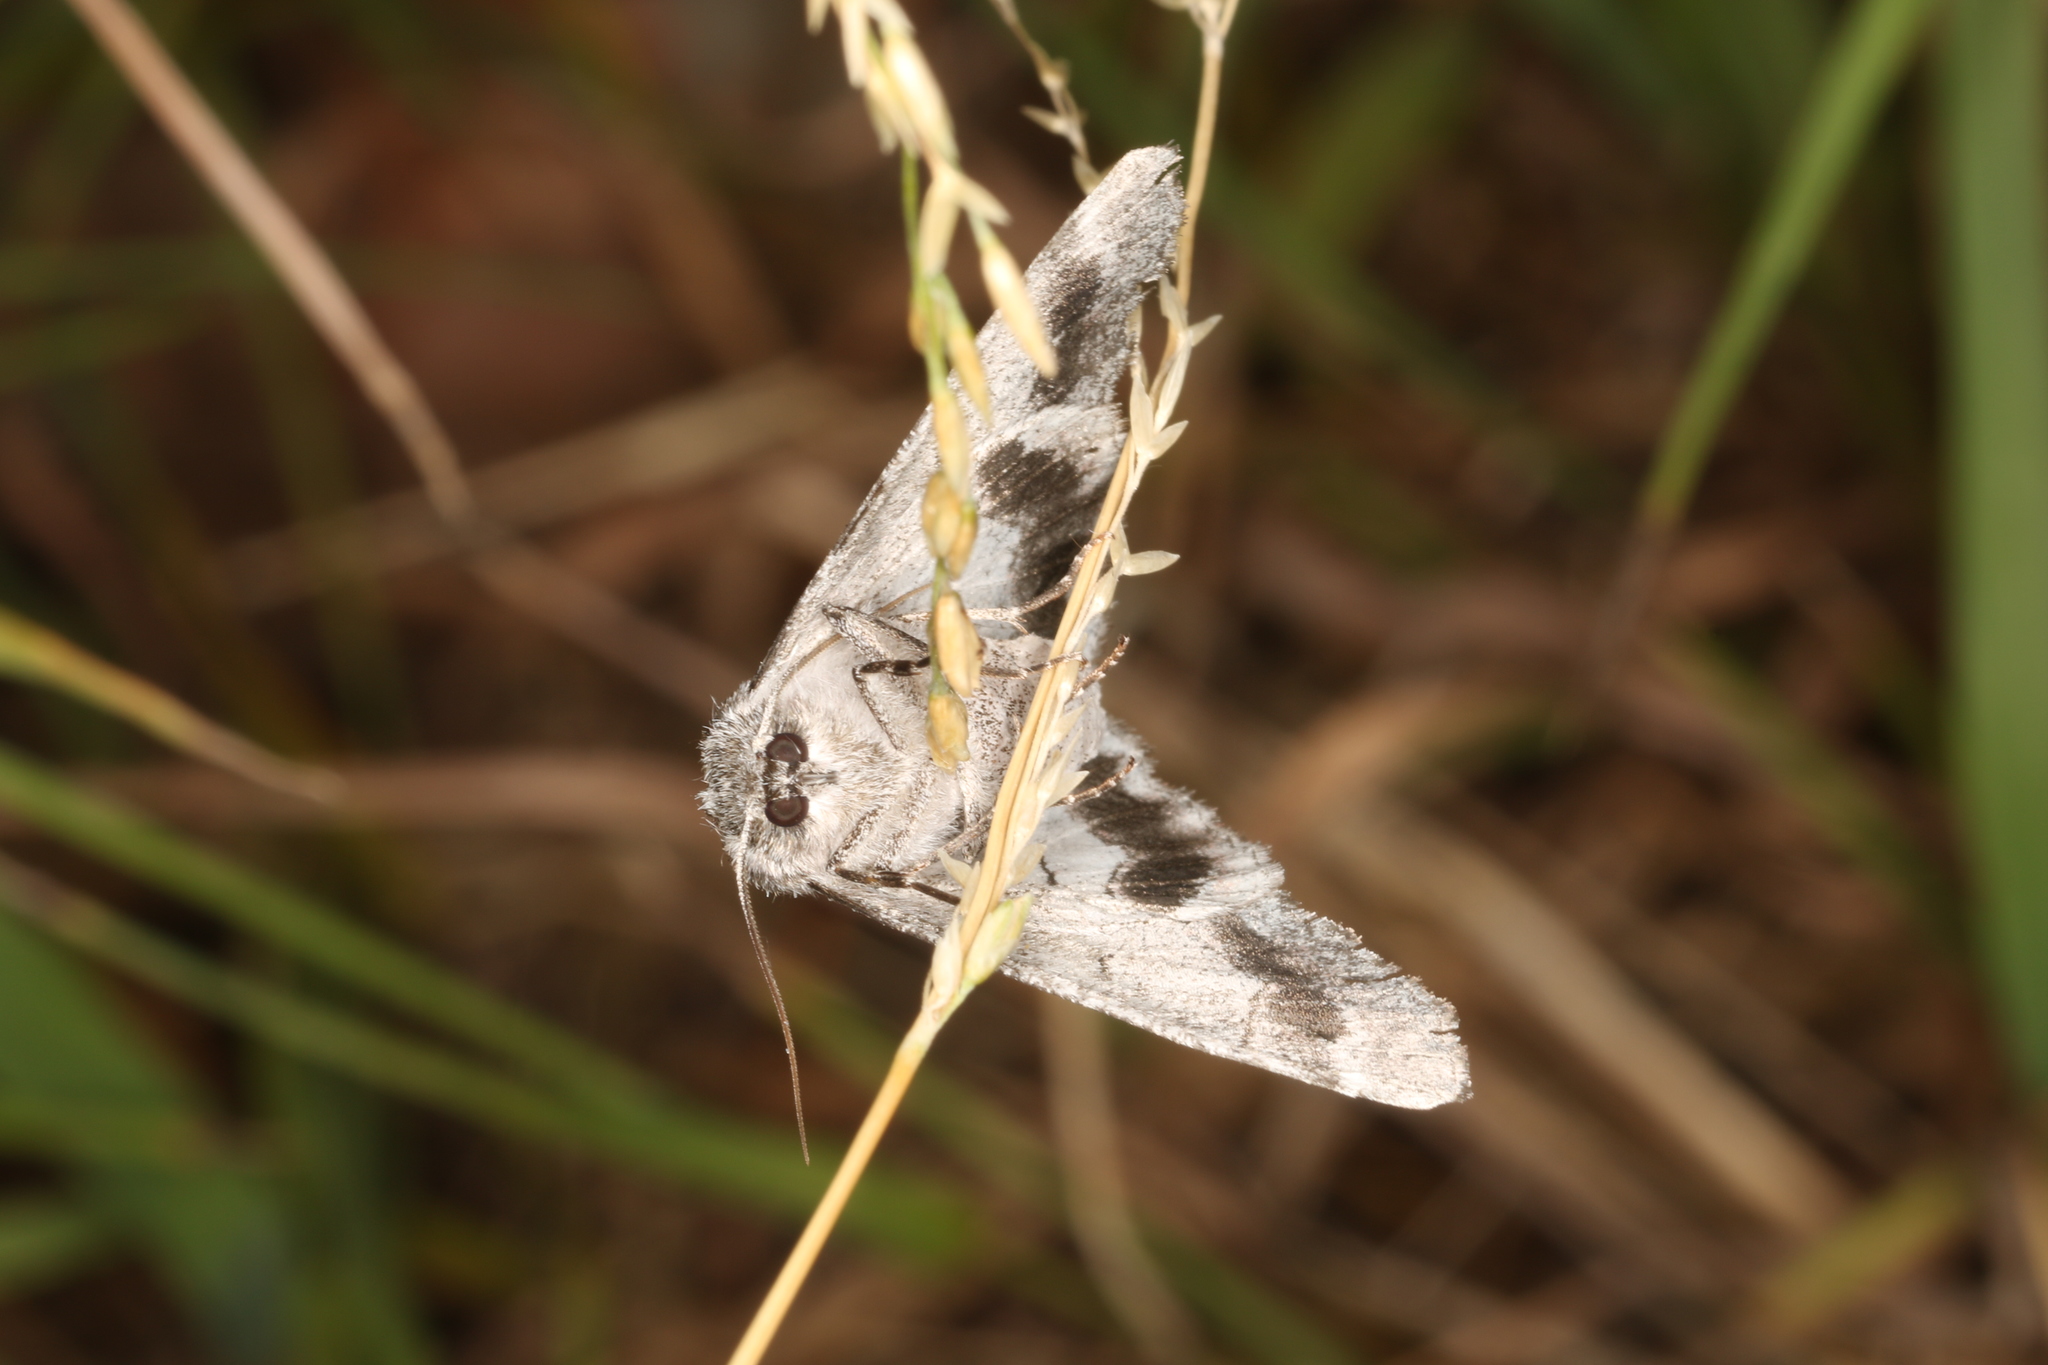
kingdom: Animalia
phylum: Arthropoda
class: Insecta
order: Lepidoptera
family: Geometridae
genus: Hypobapta
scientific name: Hypobapta diffundens
